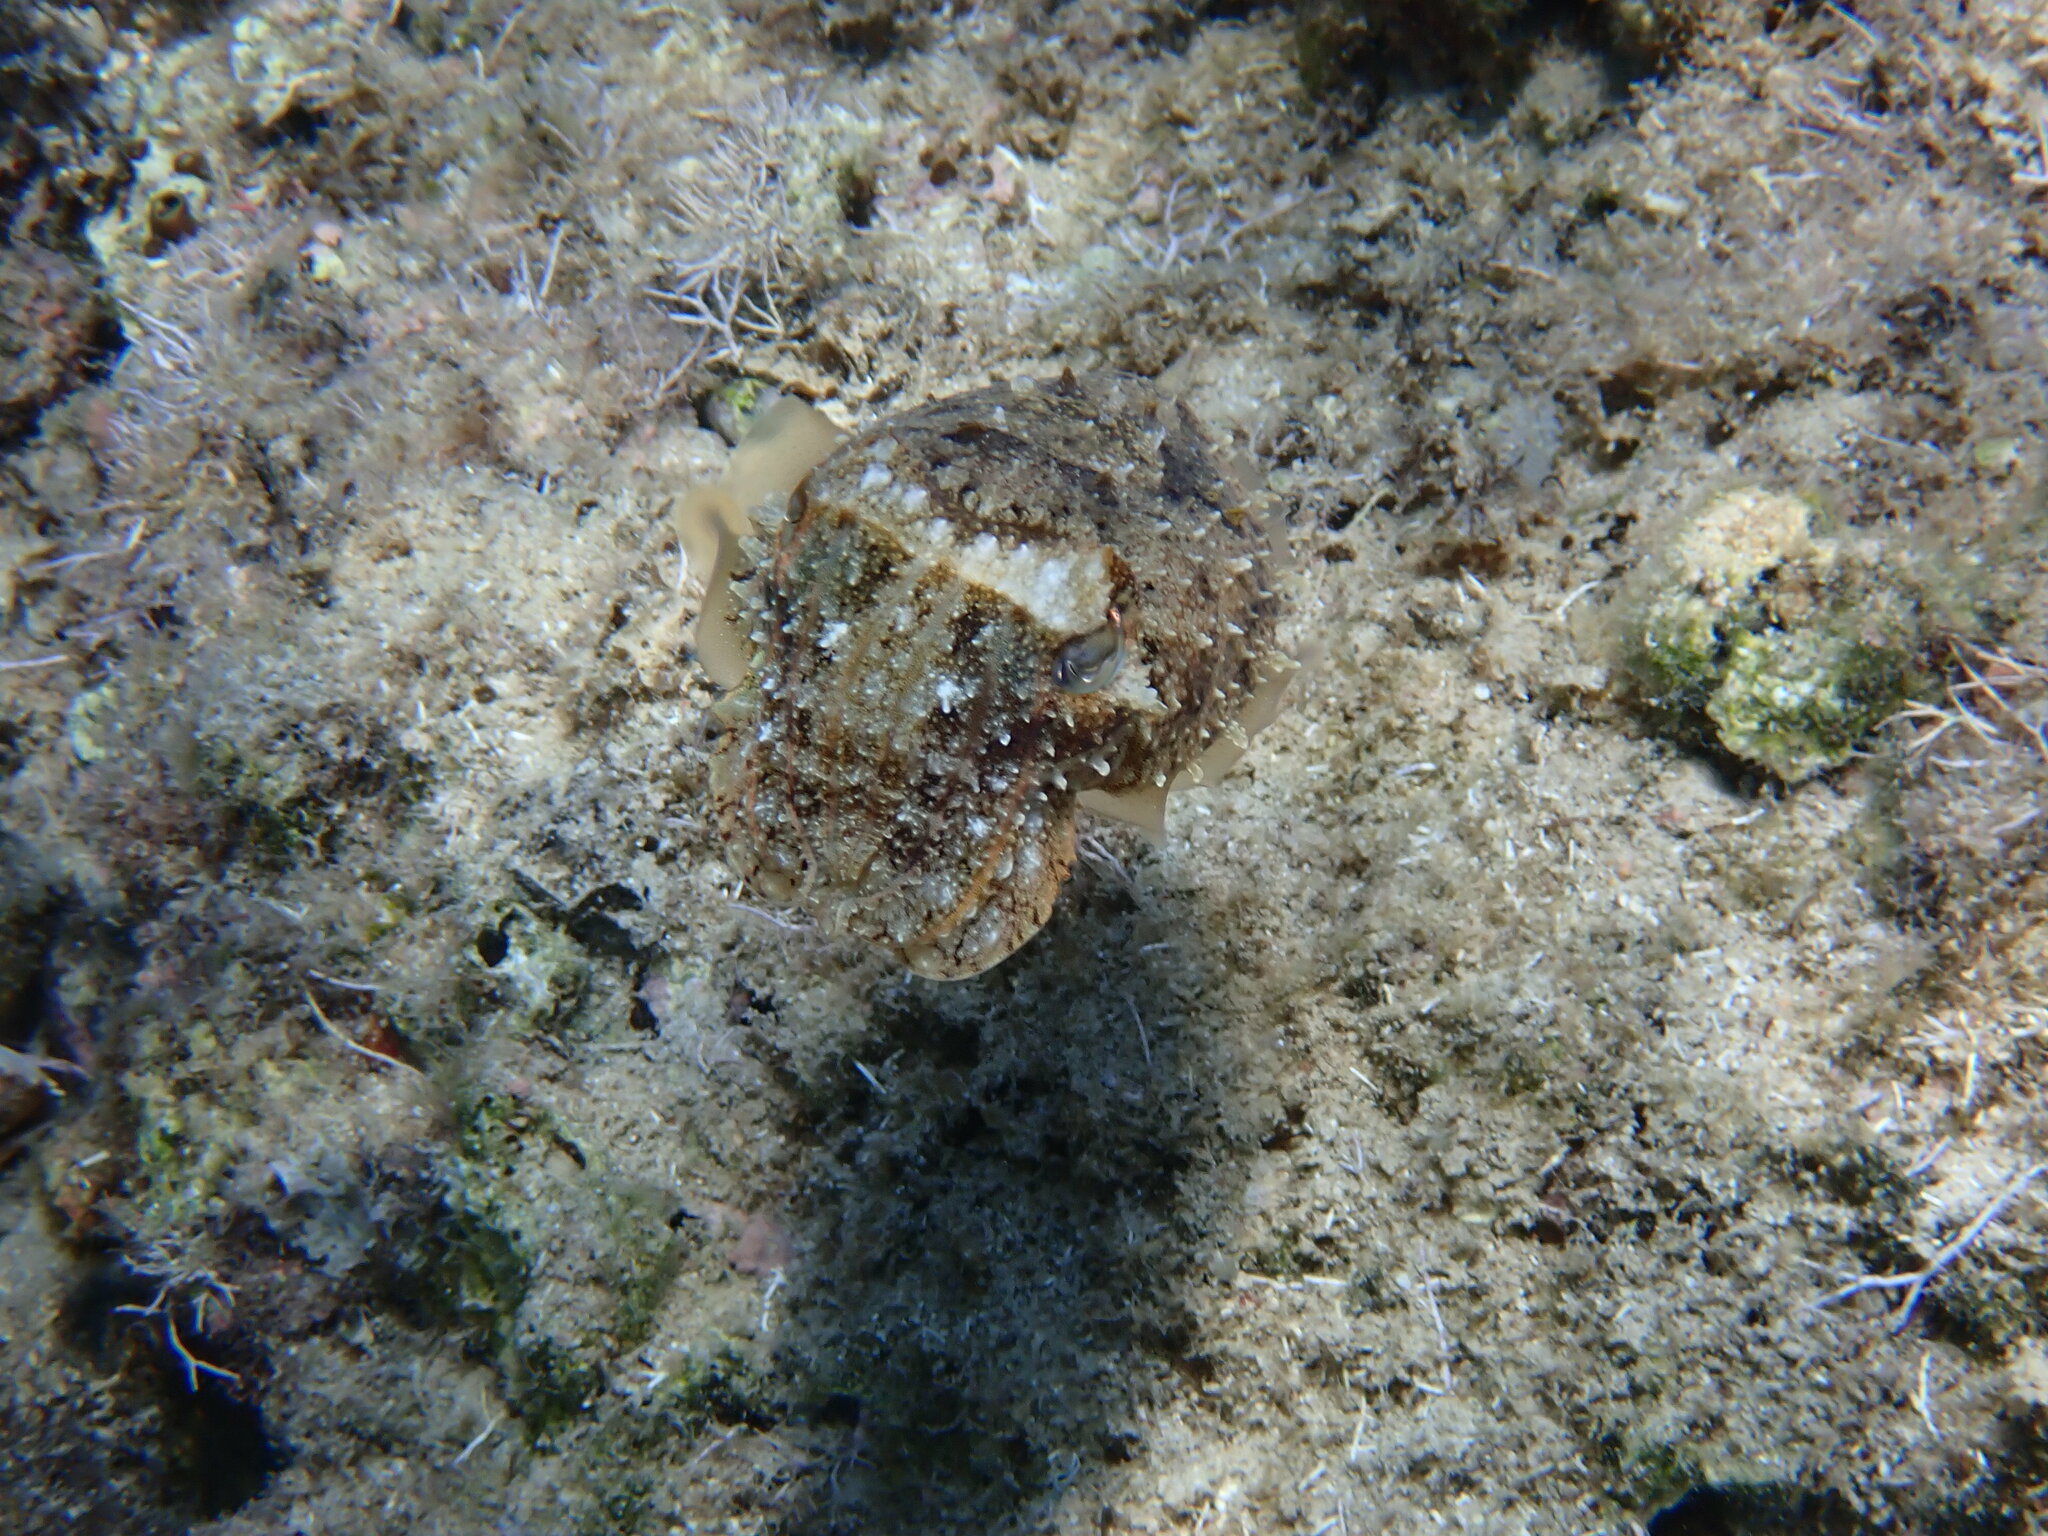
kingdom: Animalia
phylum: Mollusca
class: Cephalopoda
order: Sepiida
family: Sepiidae
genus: Sepia
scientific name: Sepia officinalis
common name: Common cuttlefish
